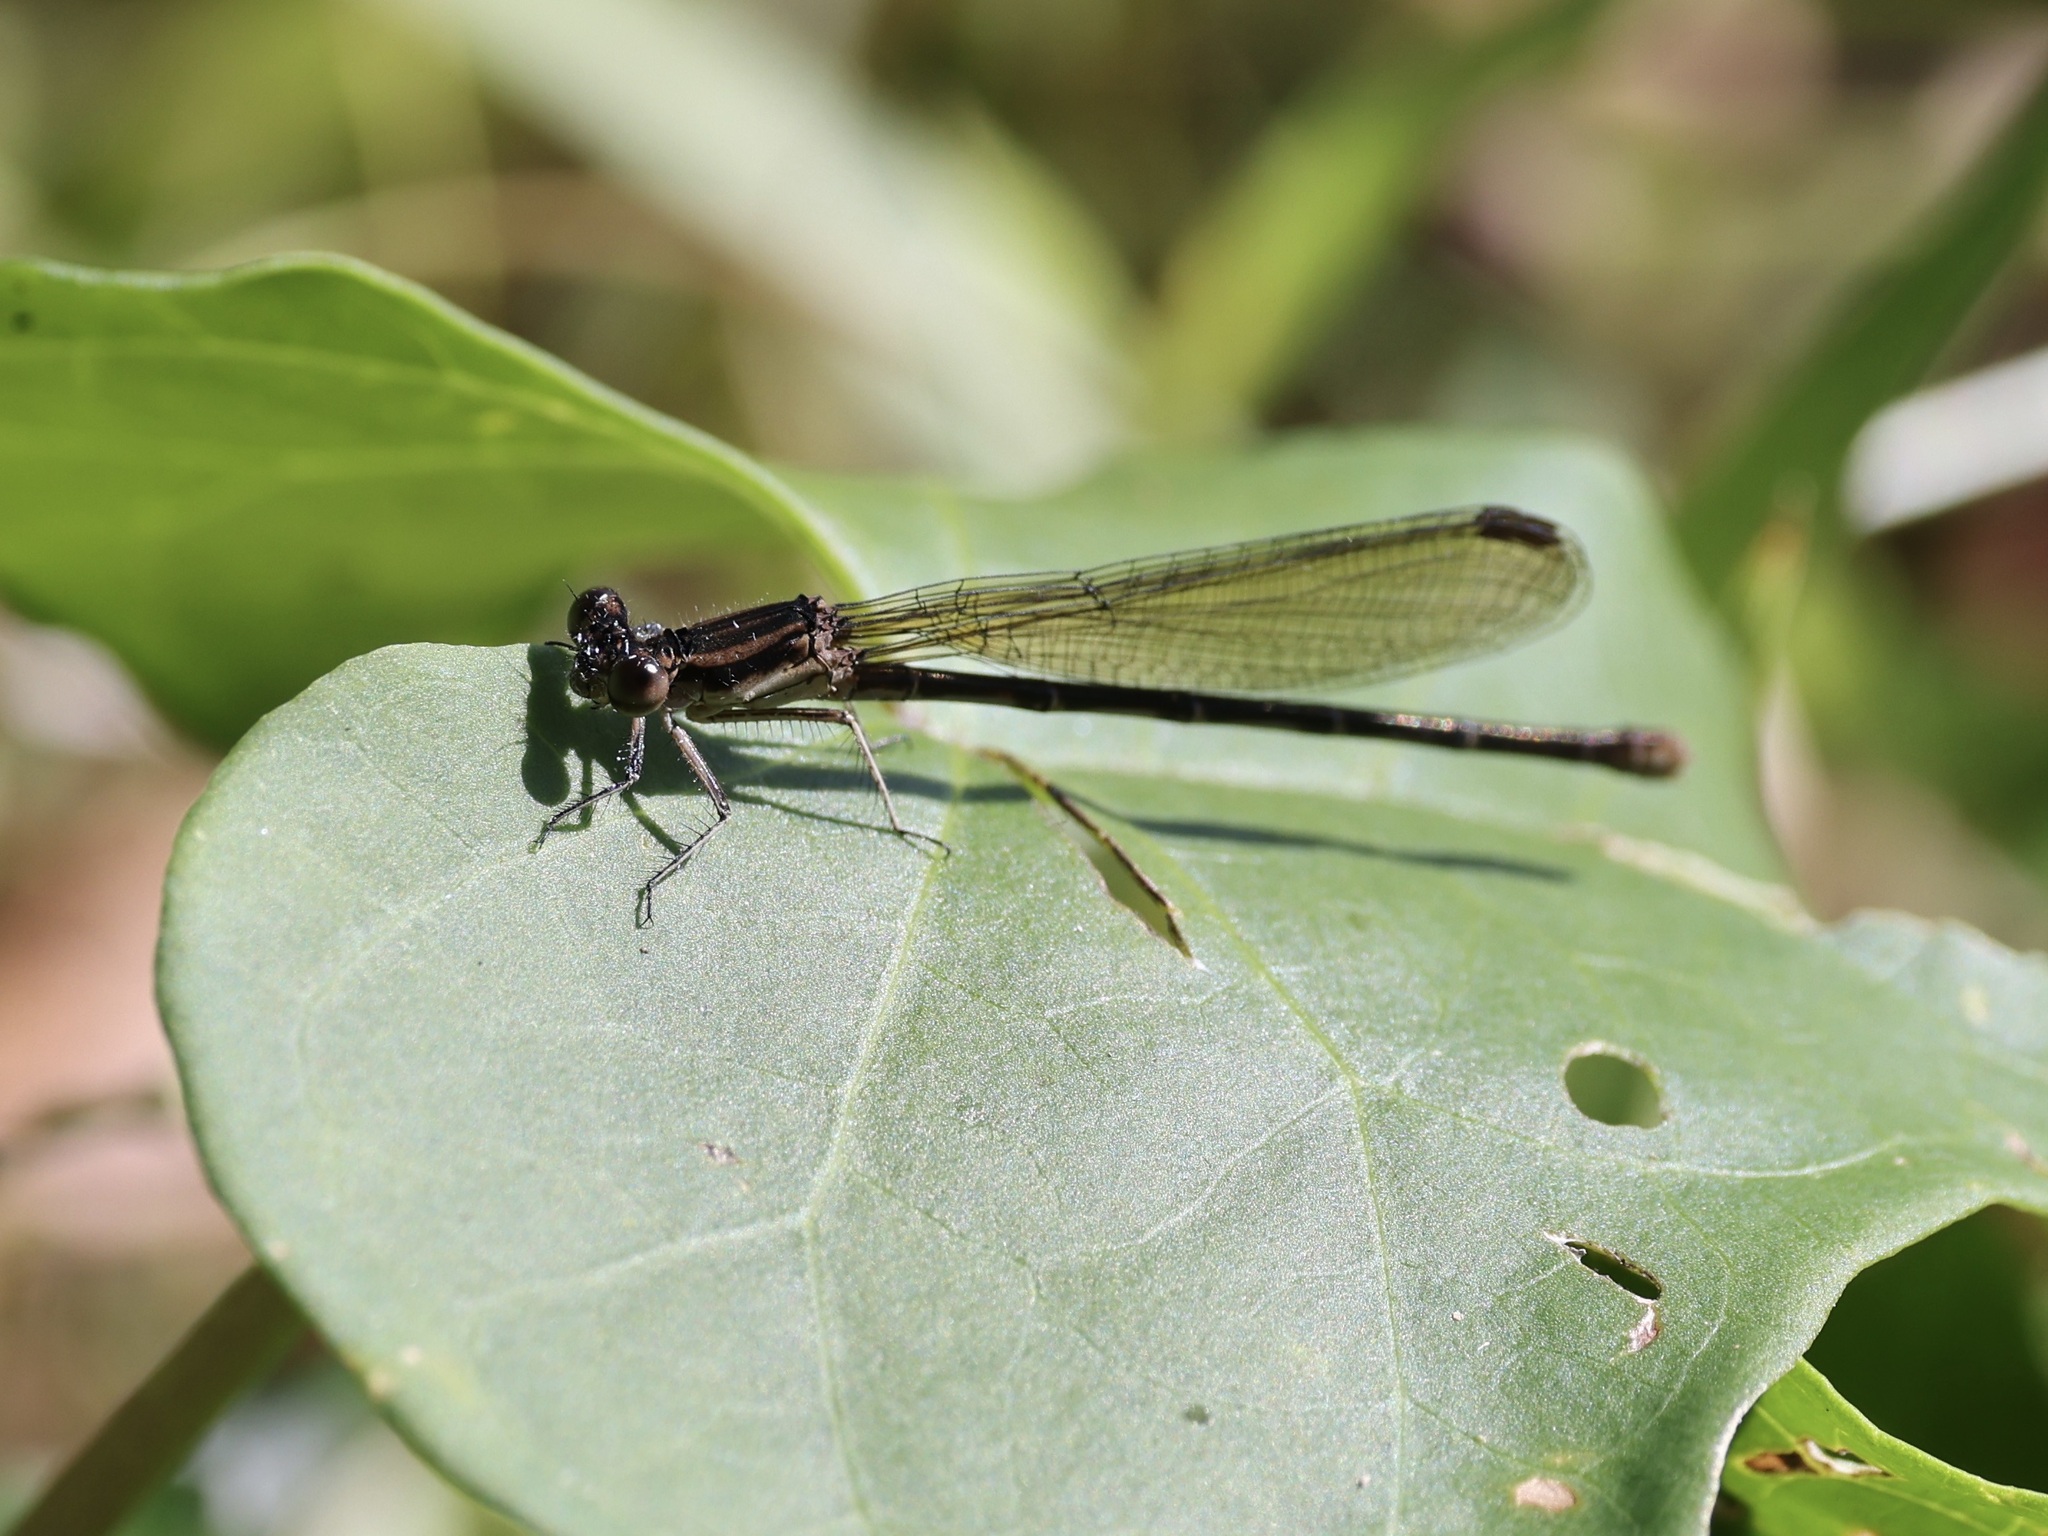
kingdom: Animalia
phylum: Arthropoda
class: Insecta
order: Odonata
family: Coenagrionidae
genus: Argia
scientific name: Argia sedula
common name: Blue-ringed dancer
